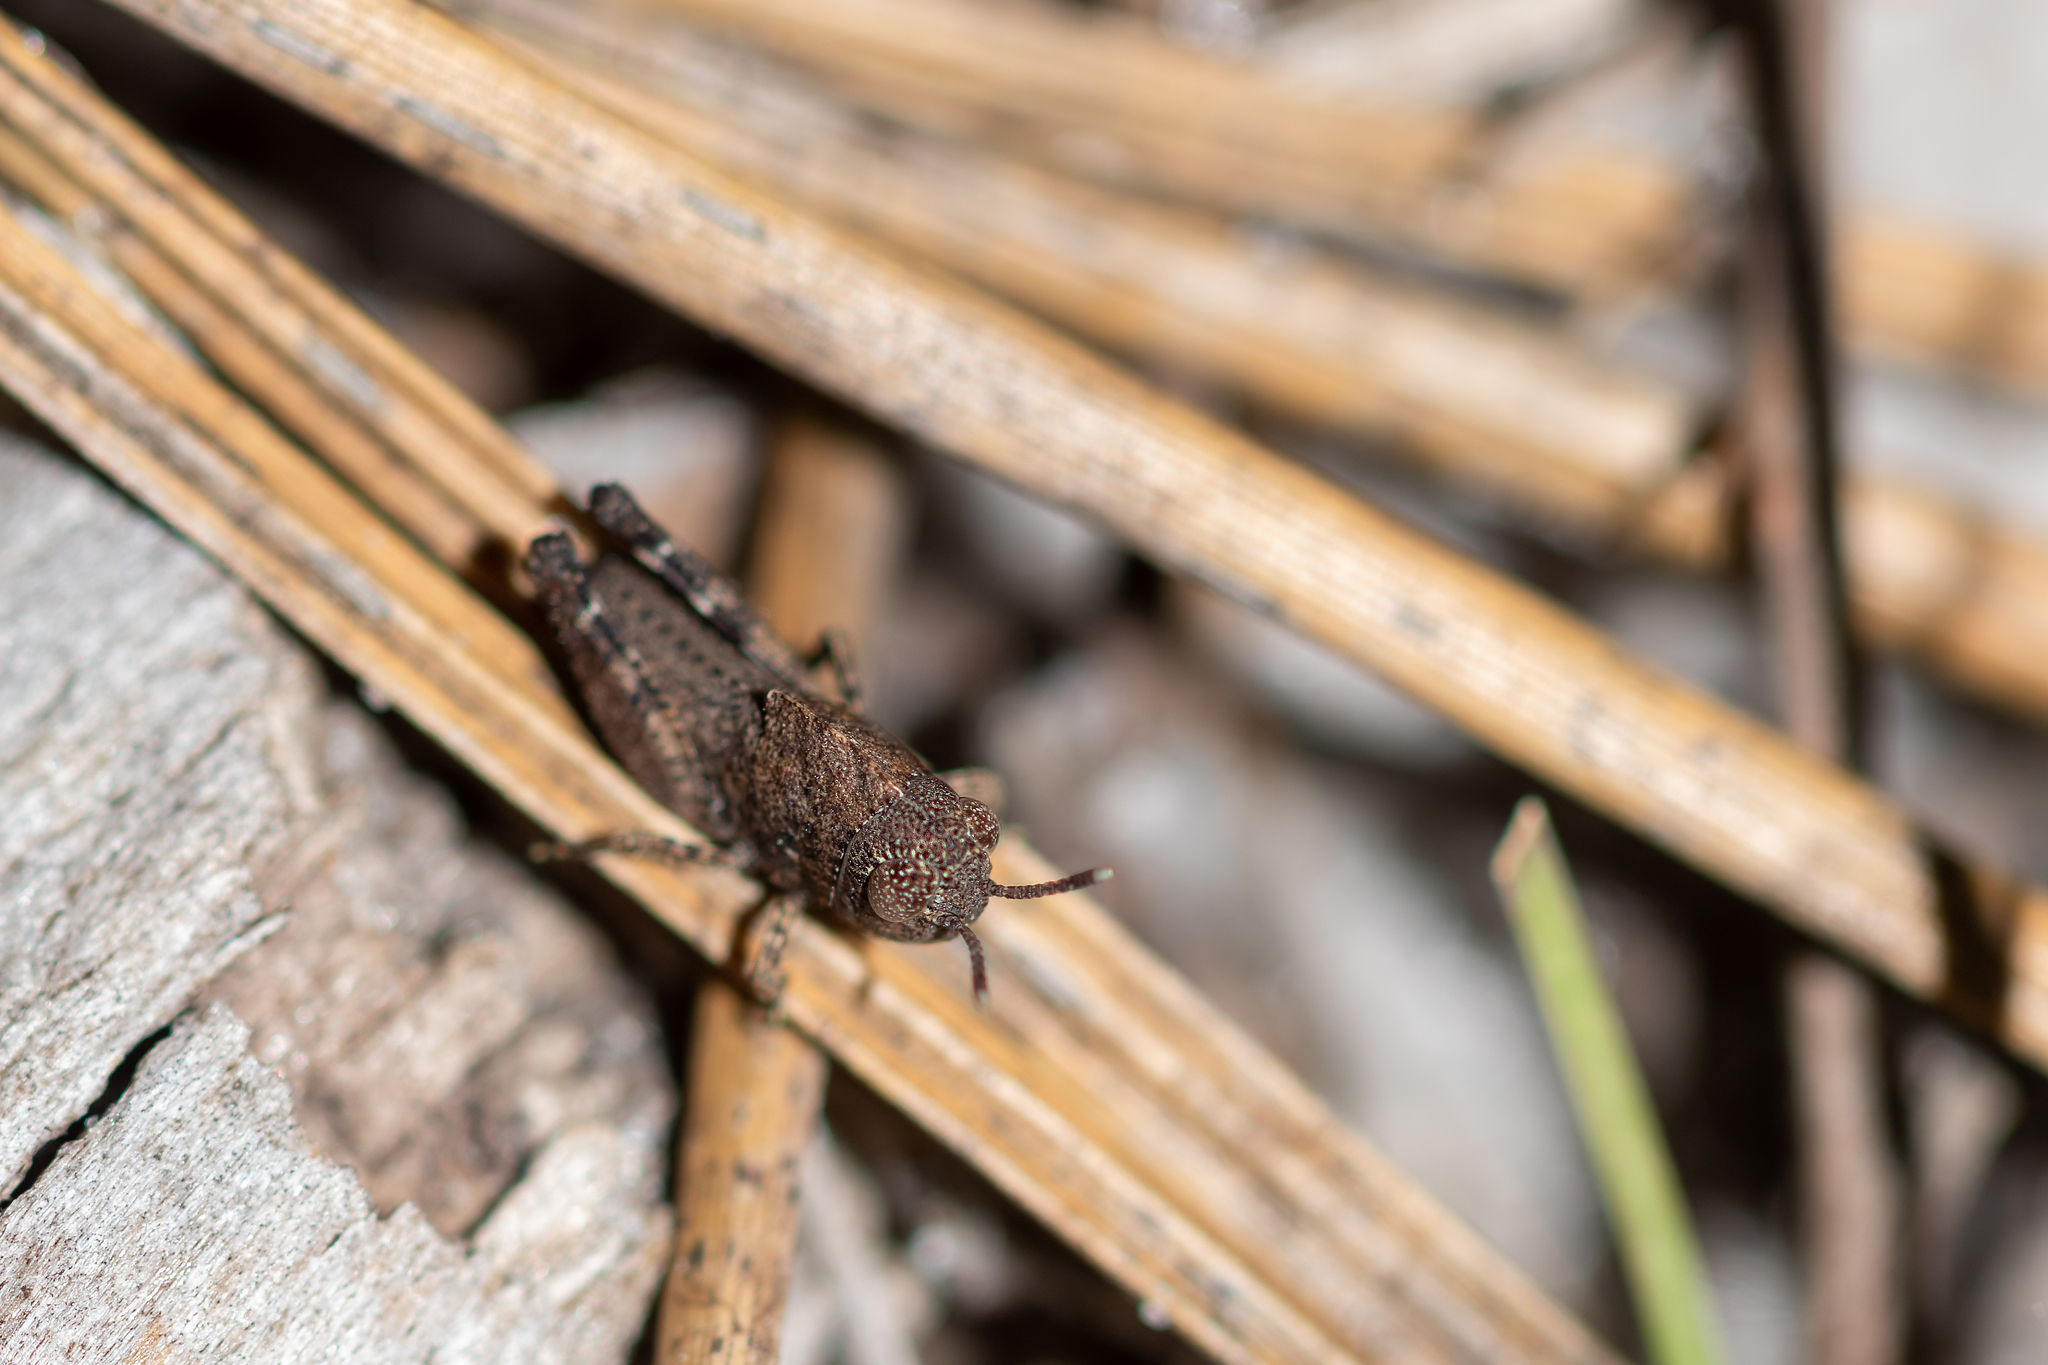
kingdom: Animalia
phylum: Arthropoda
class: Insecta
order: Orthoptera
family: Acrididae
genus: Arphia
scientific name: Arphia granulata
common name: Southern yellow-winged grasshopper
